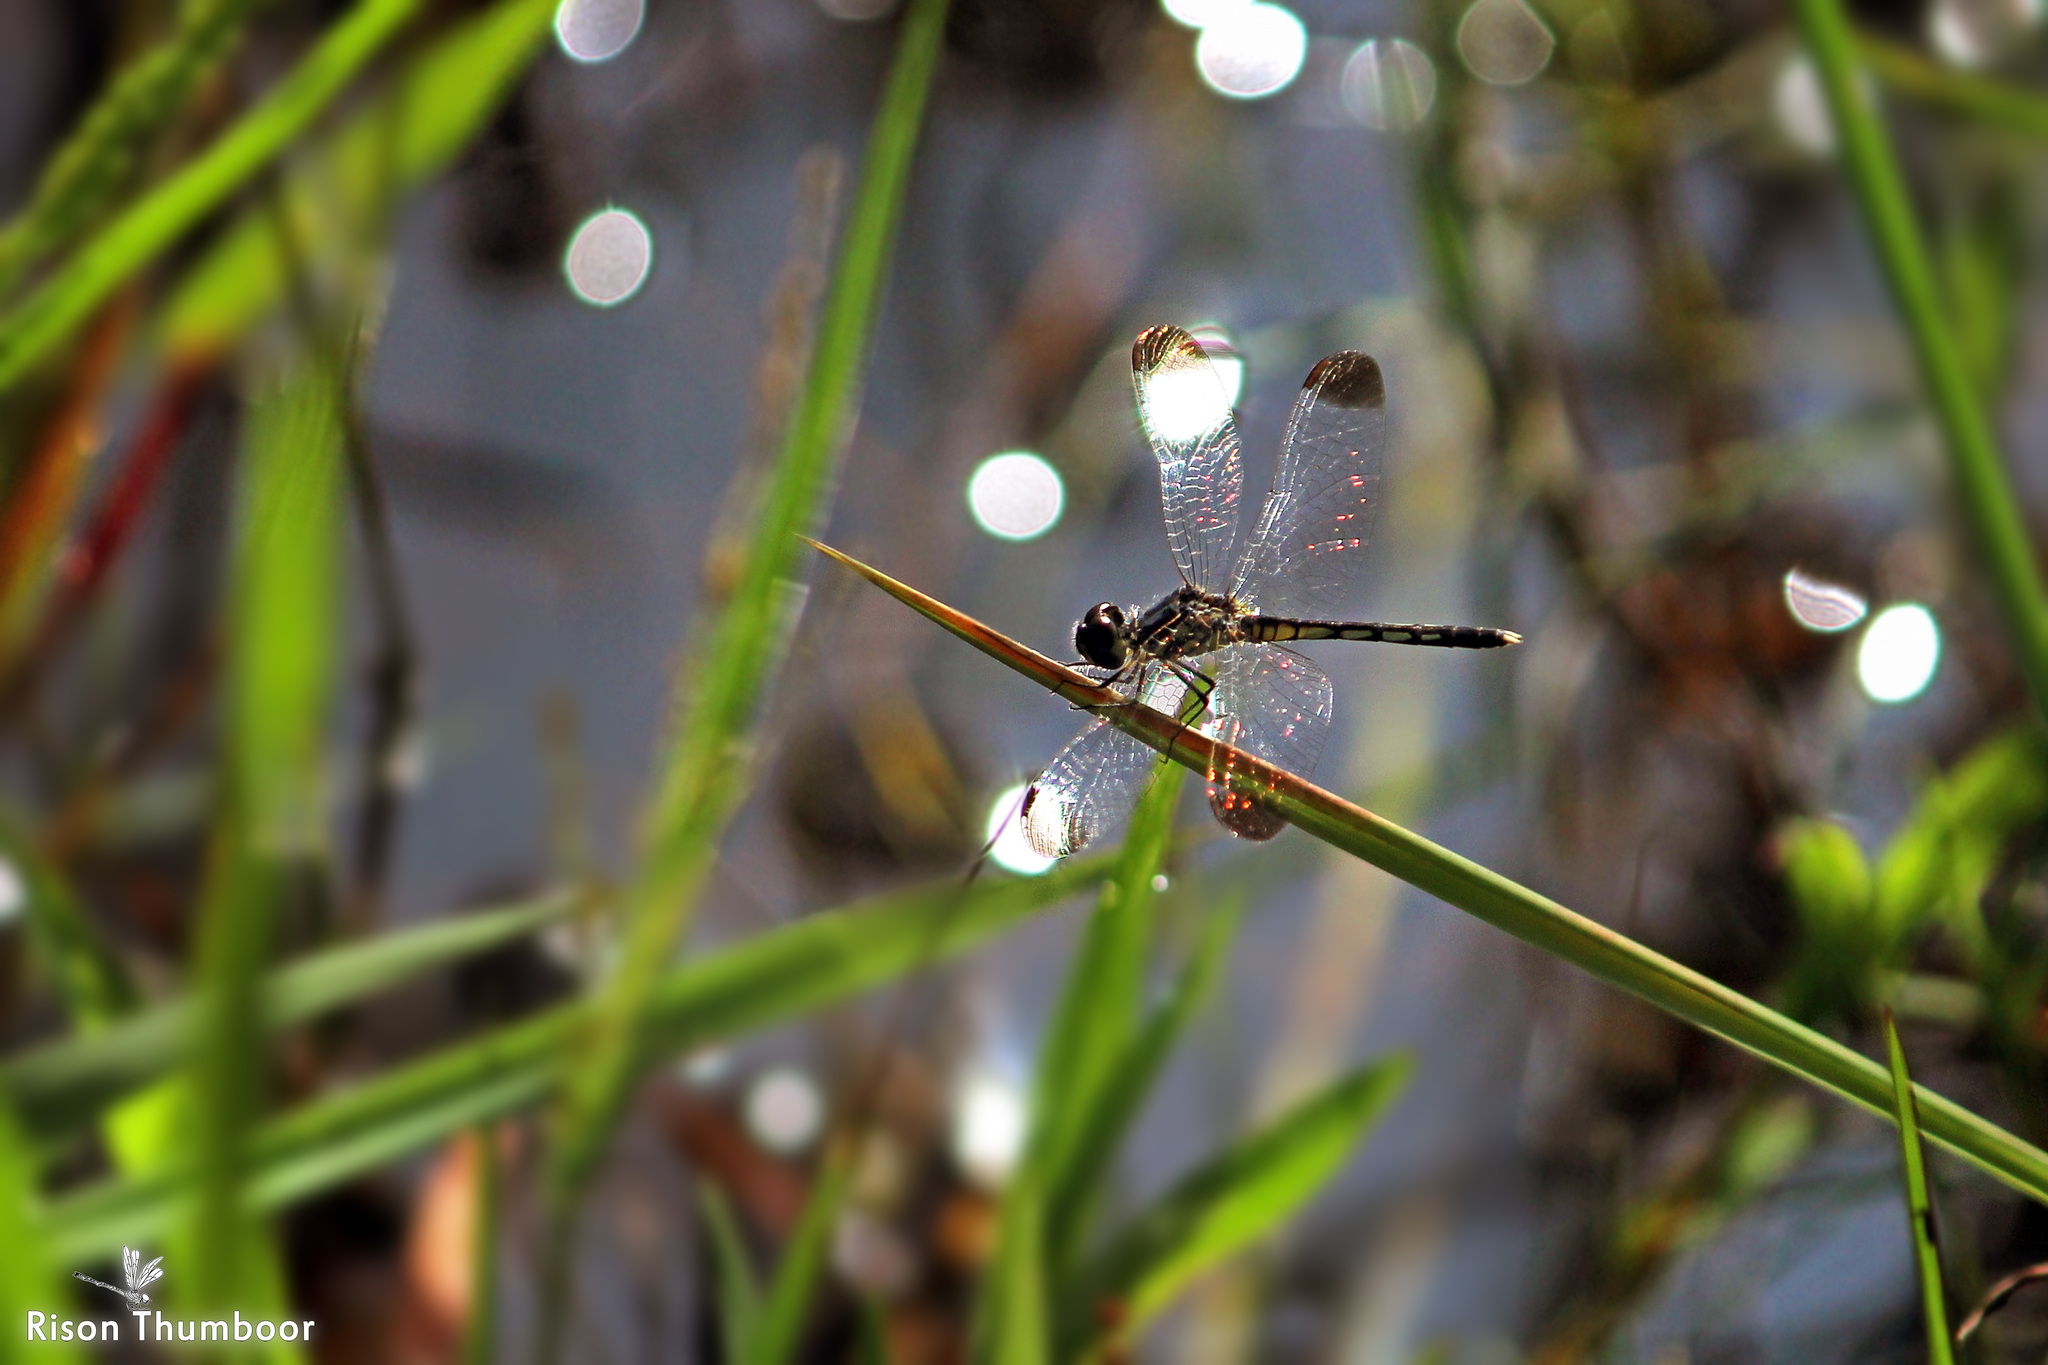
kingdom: Animalia
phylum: Arthropoda
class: Insecta
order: Odonata
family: Libellulidae
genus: Diplacodes
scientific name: Diplacodes nebulosa
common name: Black-tipped percher
